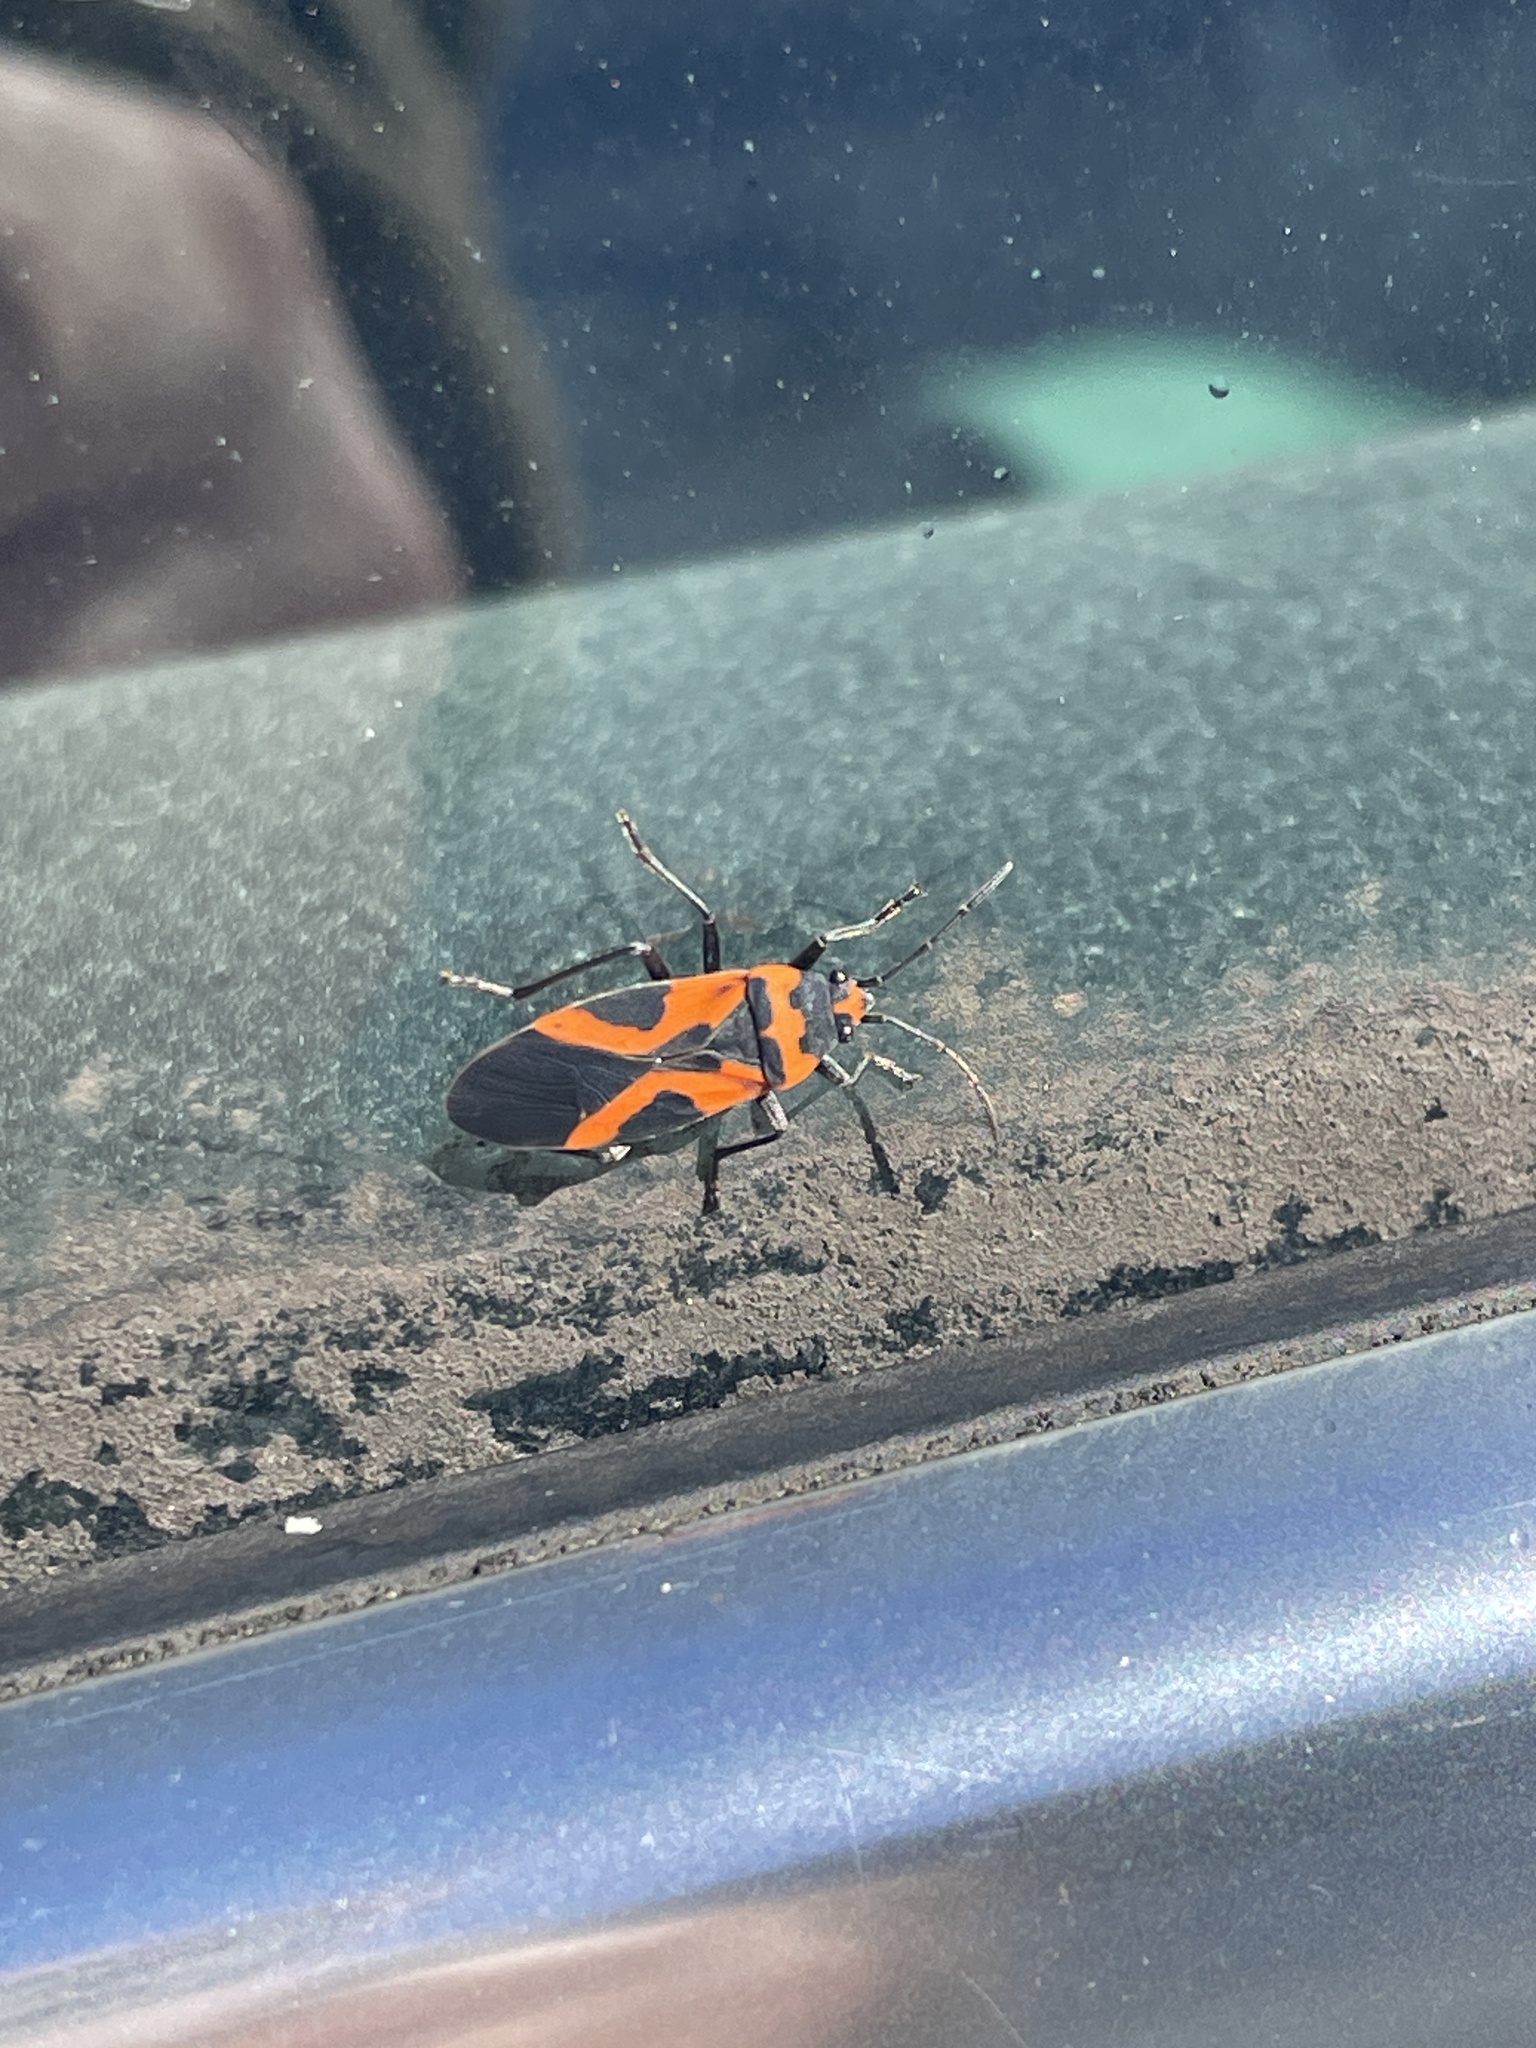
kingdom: Animalia
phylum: Arthropoda
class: Insecta
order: Hemiptera
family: Lygaeidae
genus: Lygaeus
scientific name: Lygaeus turcicus
